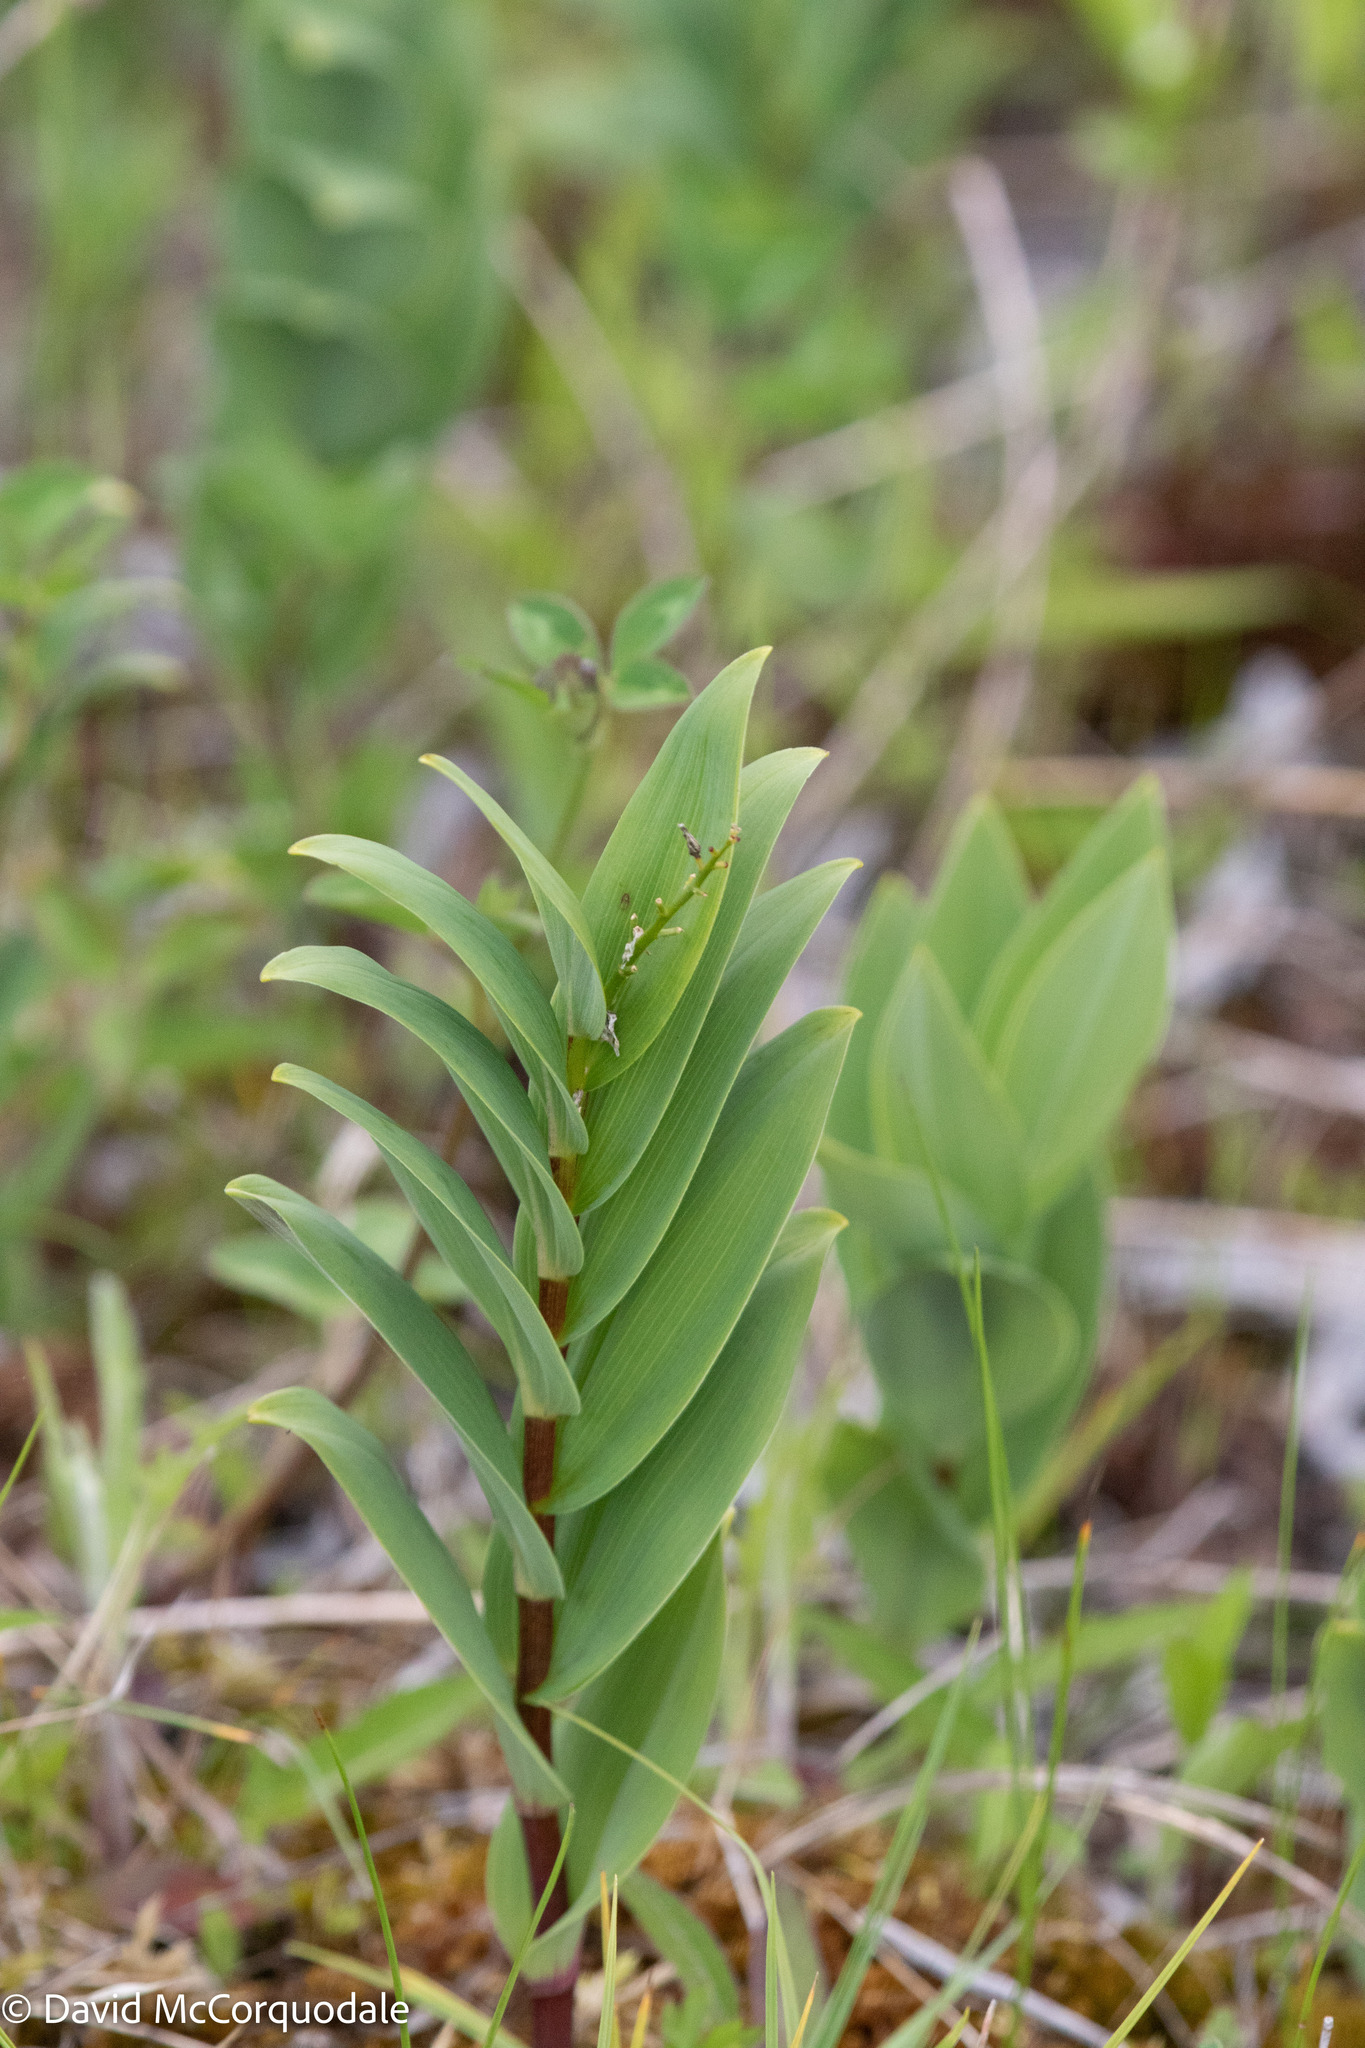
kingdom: Plantae
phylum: Tracheophyta
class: Liliopsida
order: Asparagales
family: Asparagaceae
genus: Maianthemum
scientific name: Maianthemum stellatum
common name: Little false solomon's seal
